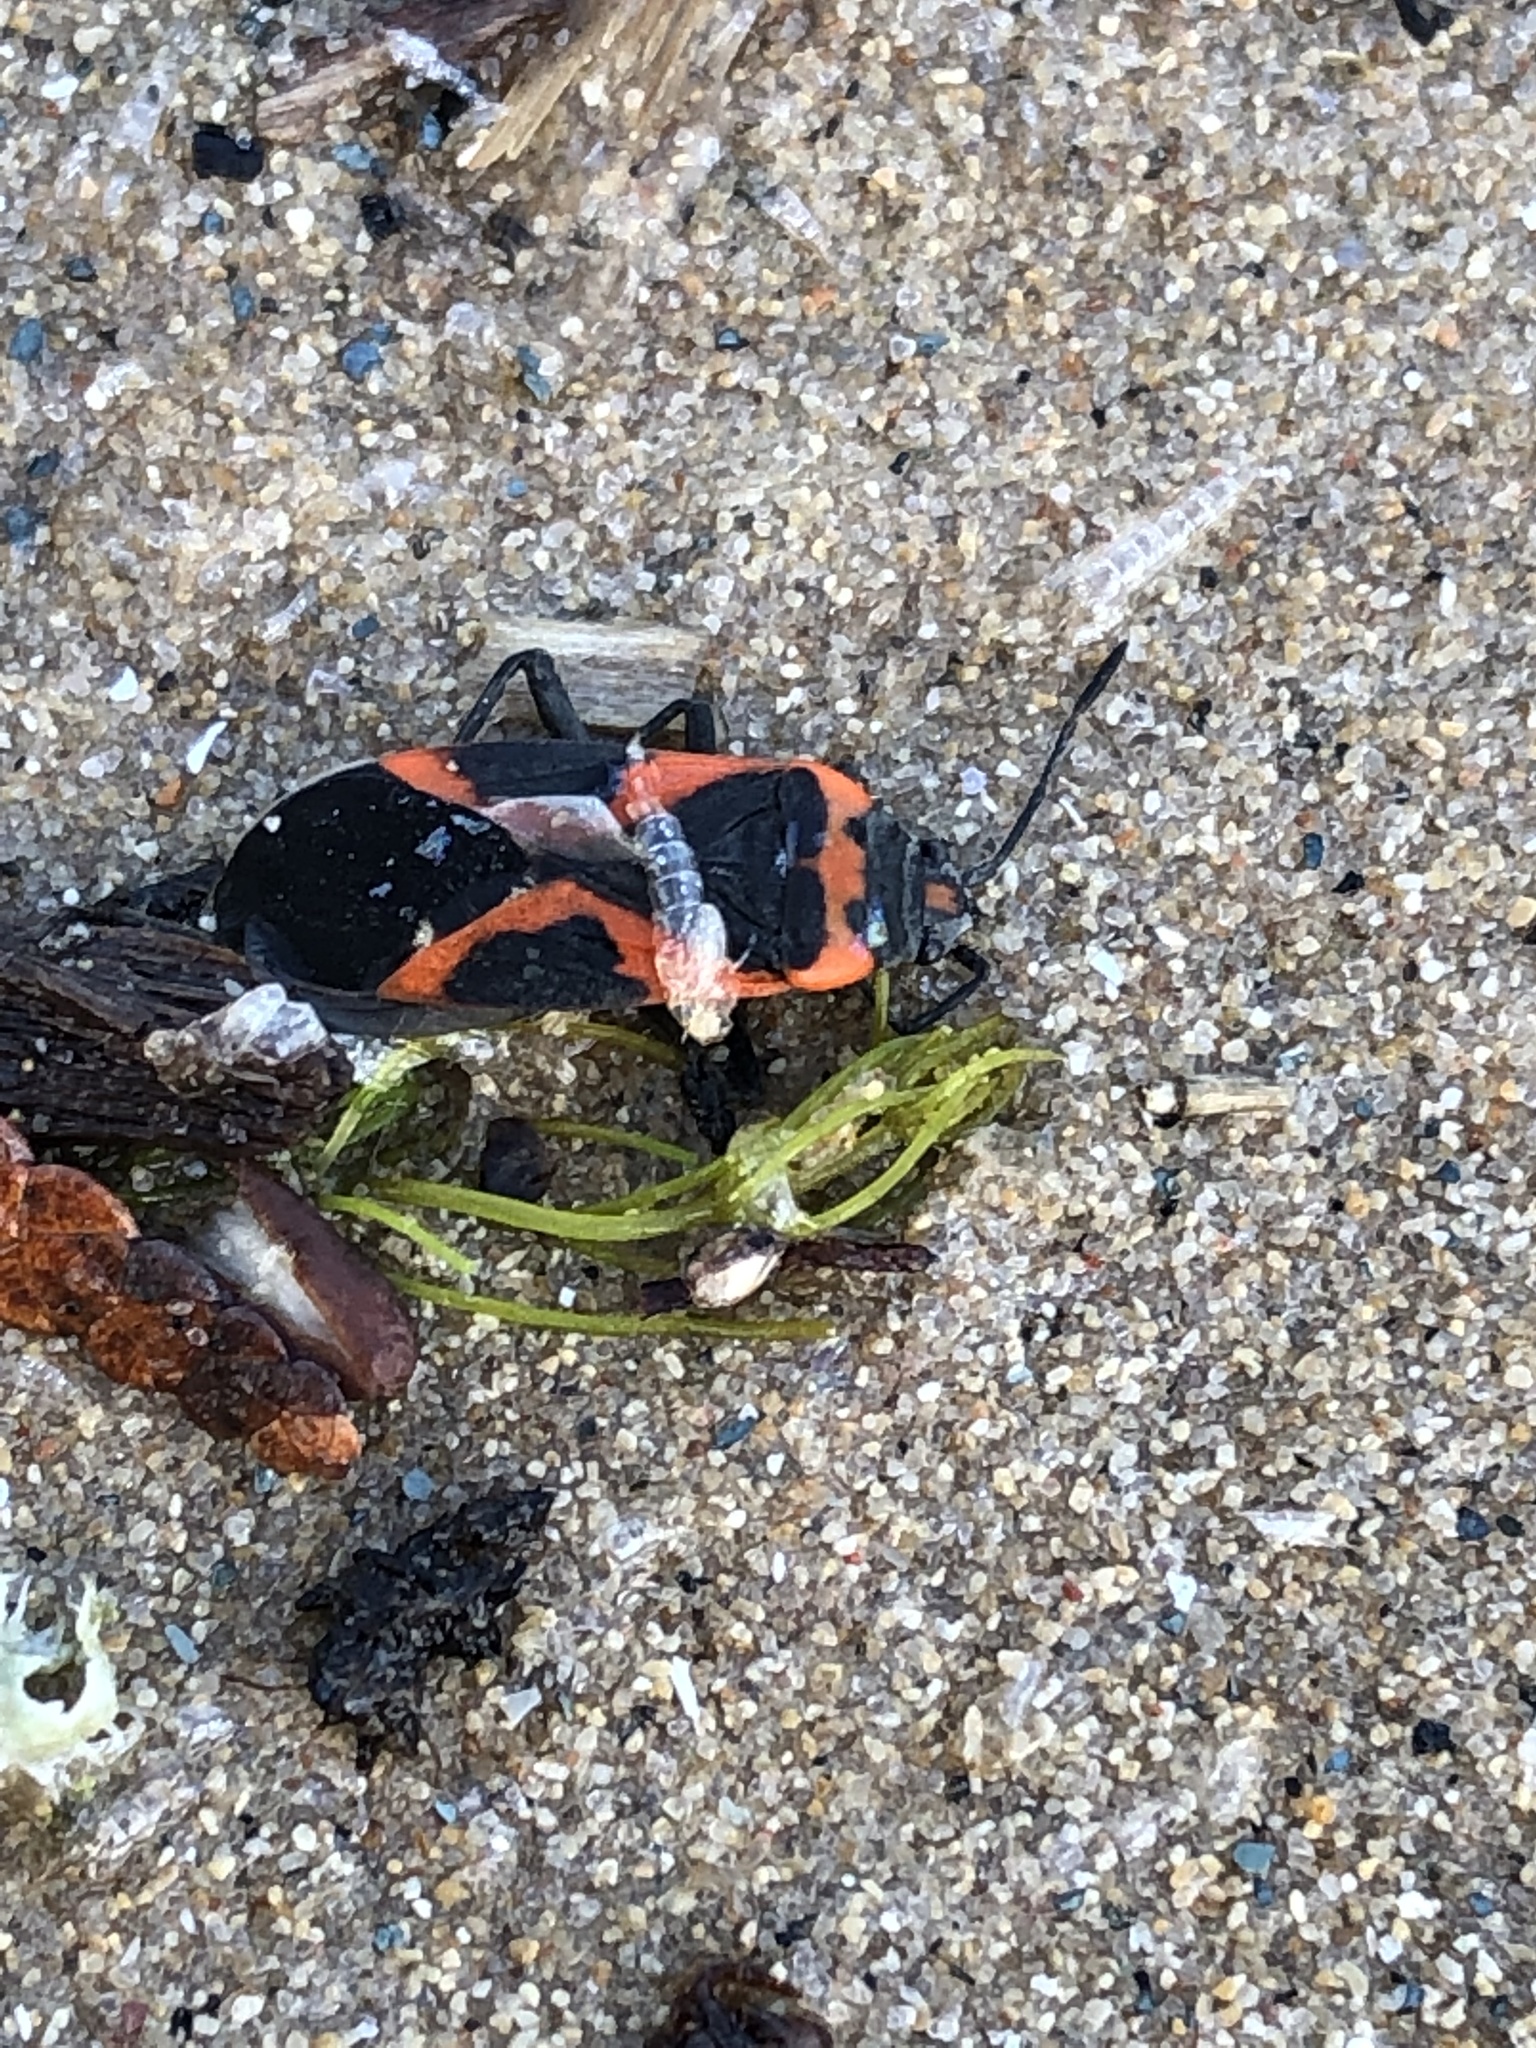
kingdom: Animalia
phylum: Arthropoda
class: Insecta
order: Hemiptera
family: Lygaeidae
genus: Lygaeus
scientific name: Lygaeus kalmii
